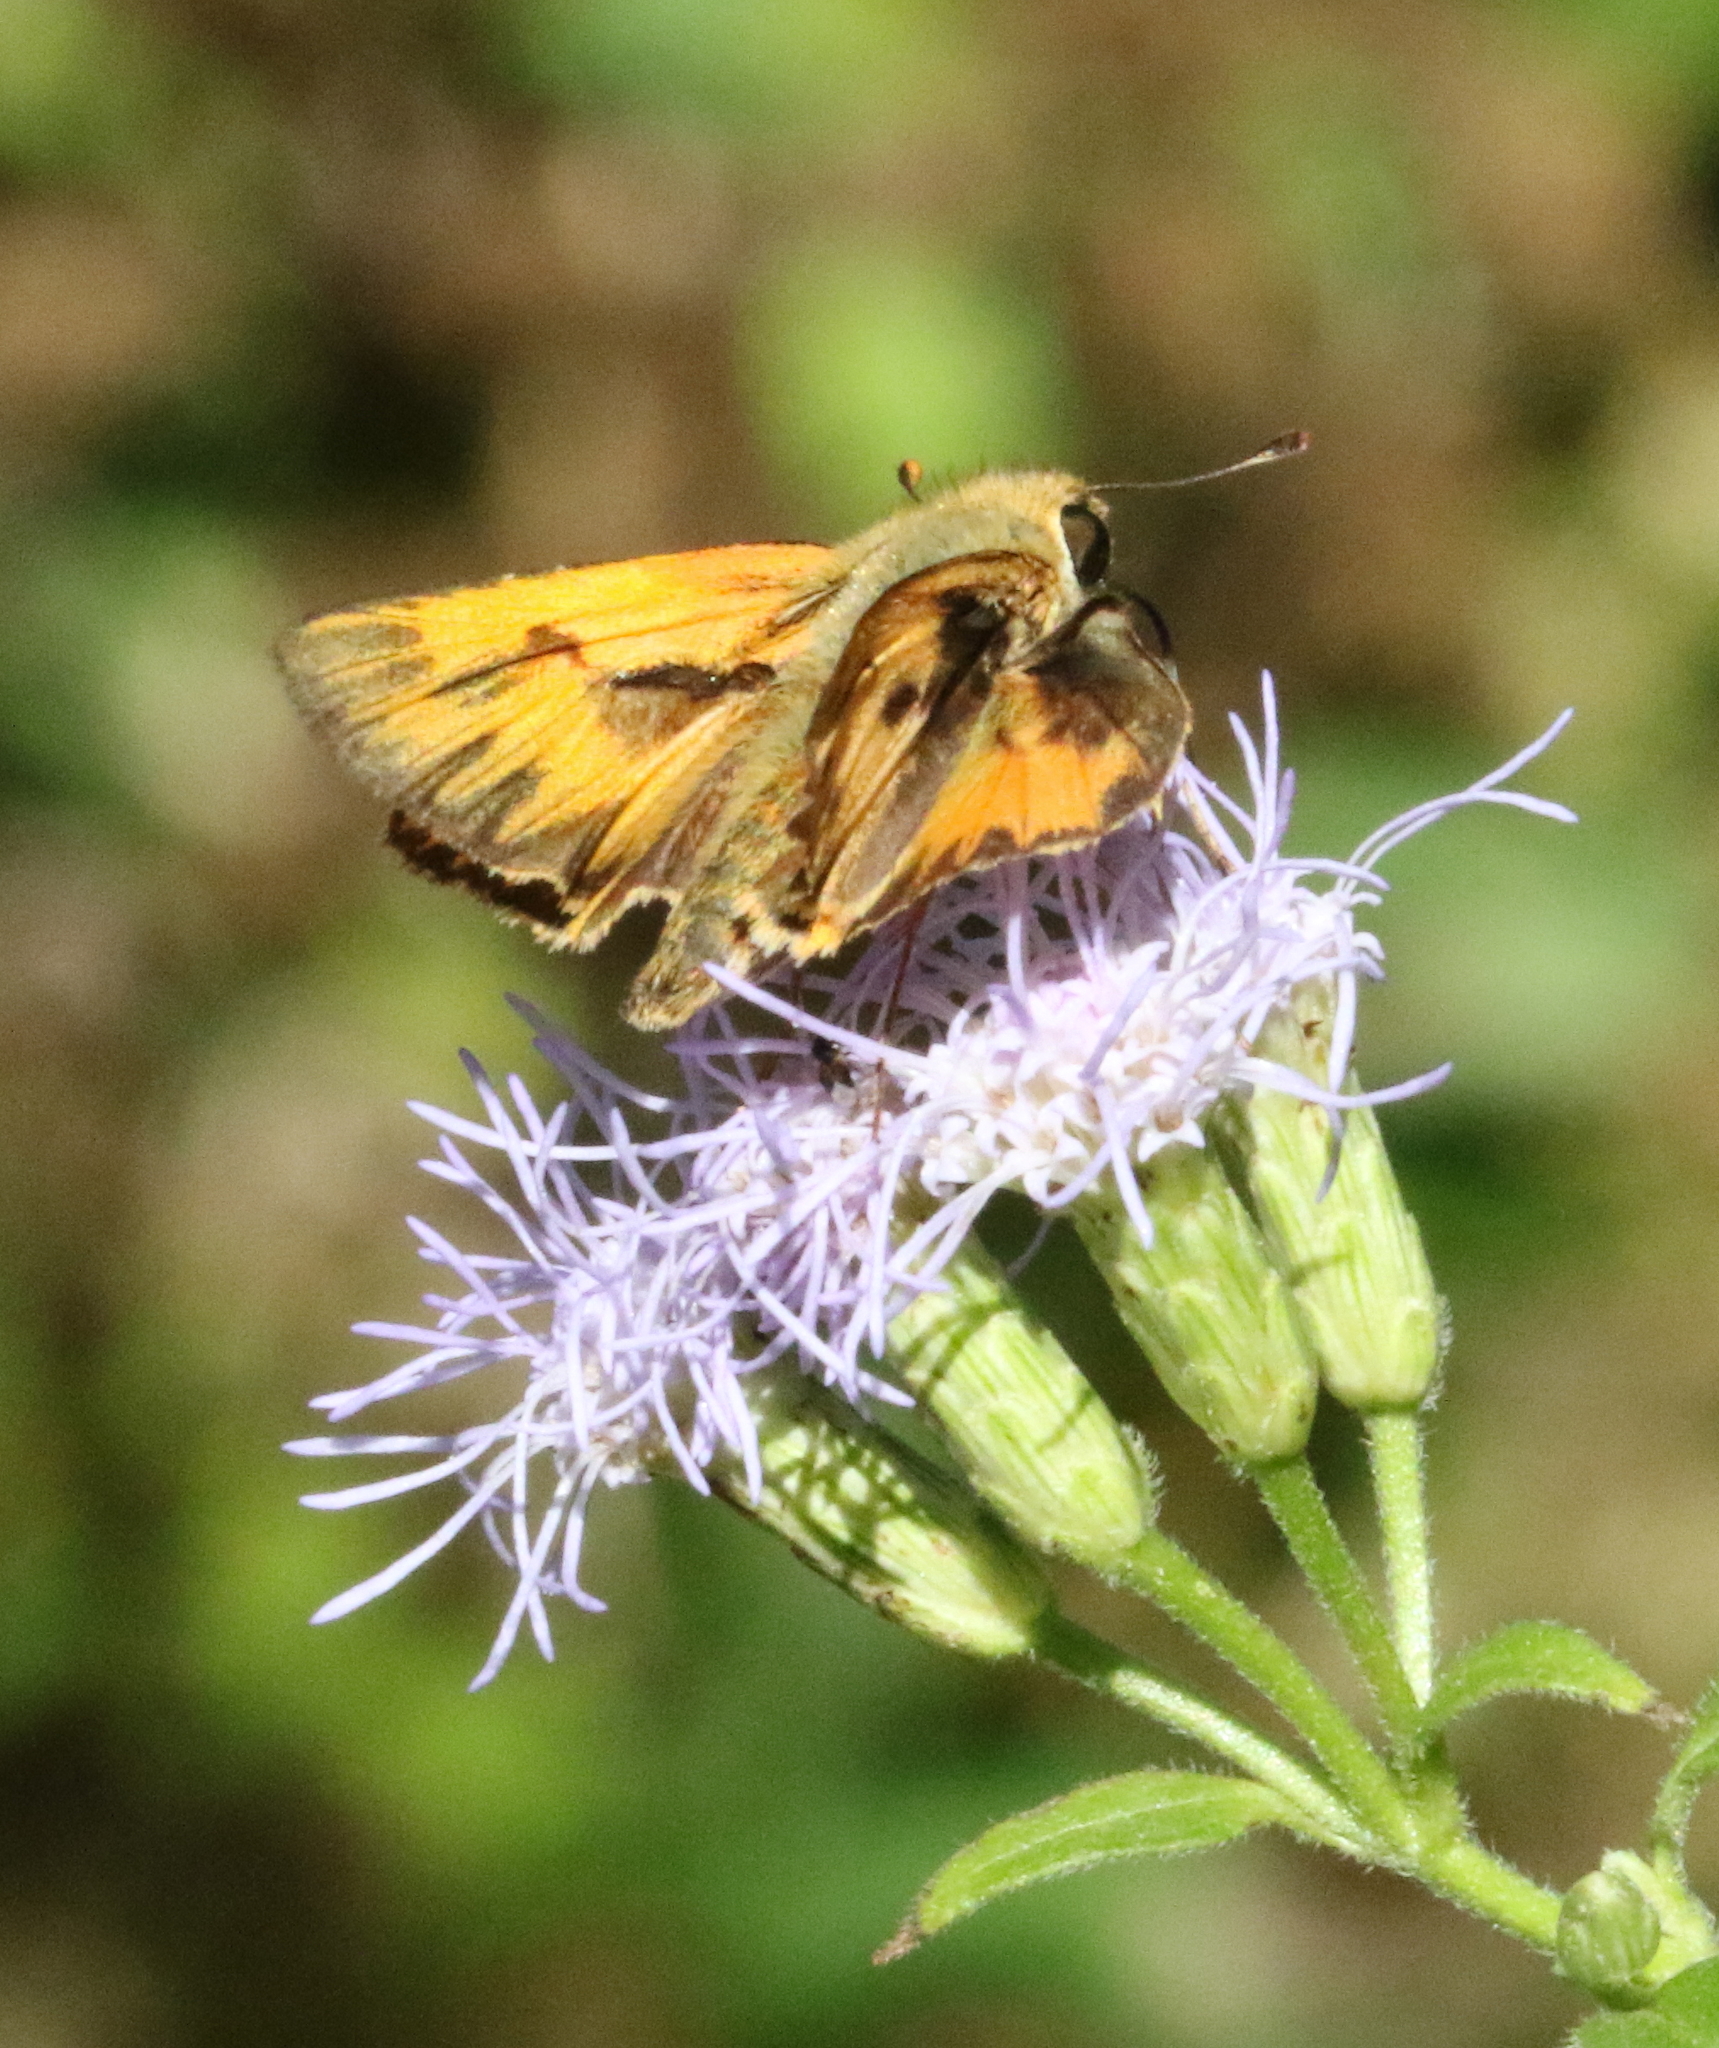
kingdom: Animalia
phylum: Arthropoda
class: Insecta
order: Lepidoptera
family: Hesperiidae
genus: Hylephila
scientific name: Hylephila phyleus
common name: Fiery skipper
